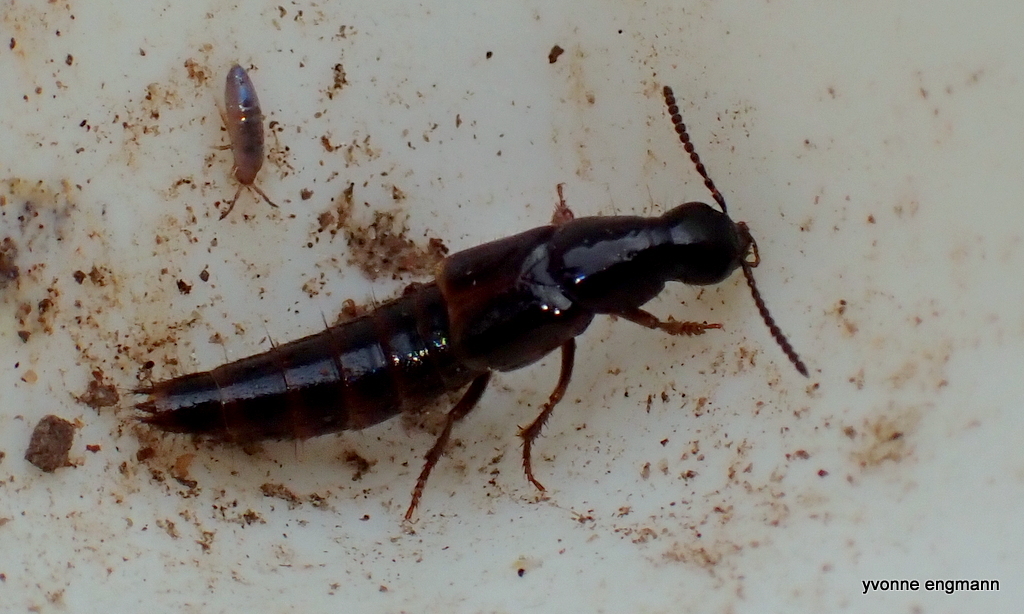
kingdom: Animalia
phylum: Arthropoda
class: Insecta
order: Coleoptera
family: Staphylinidae
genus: Quedius
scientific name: Quedius cinctus
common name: Large rove beetle
